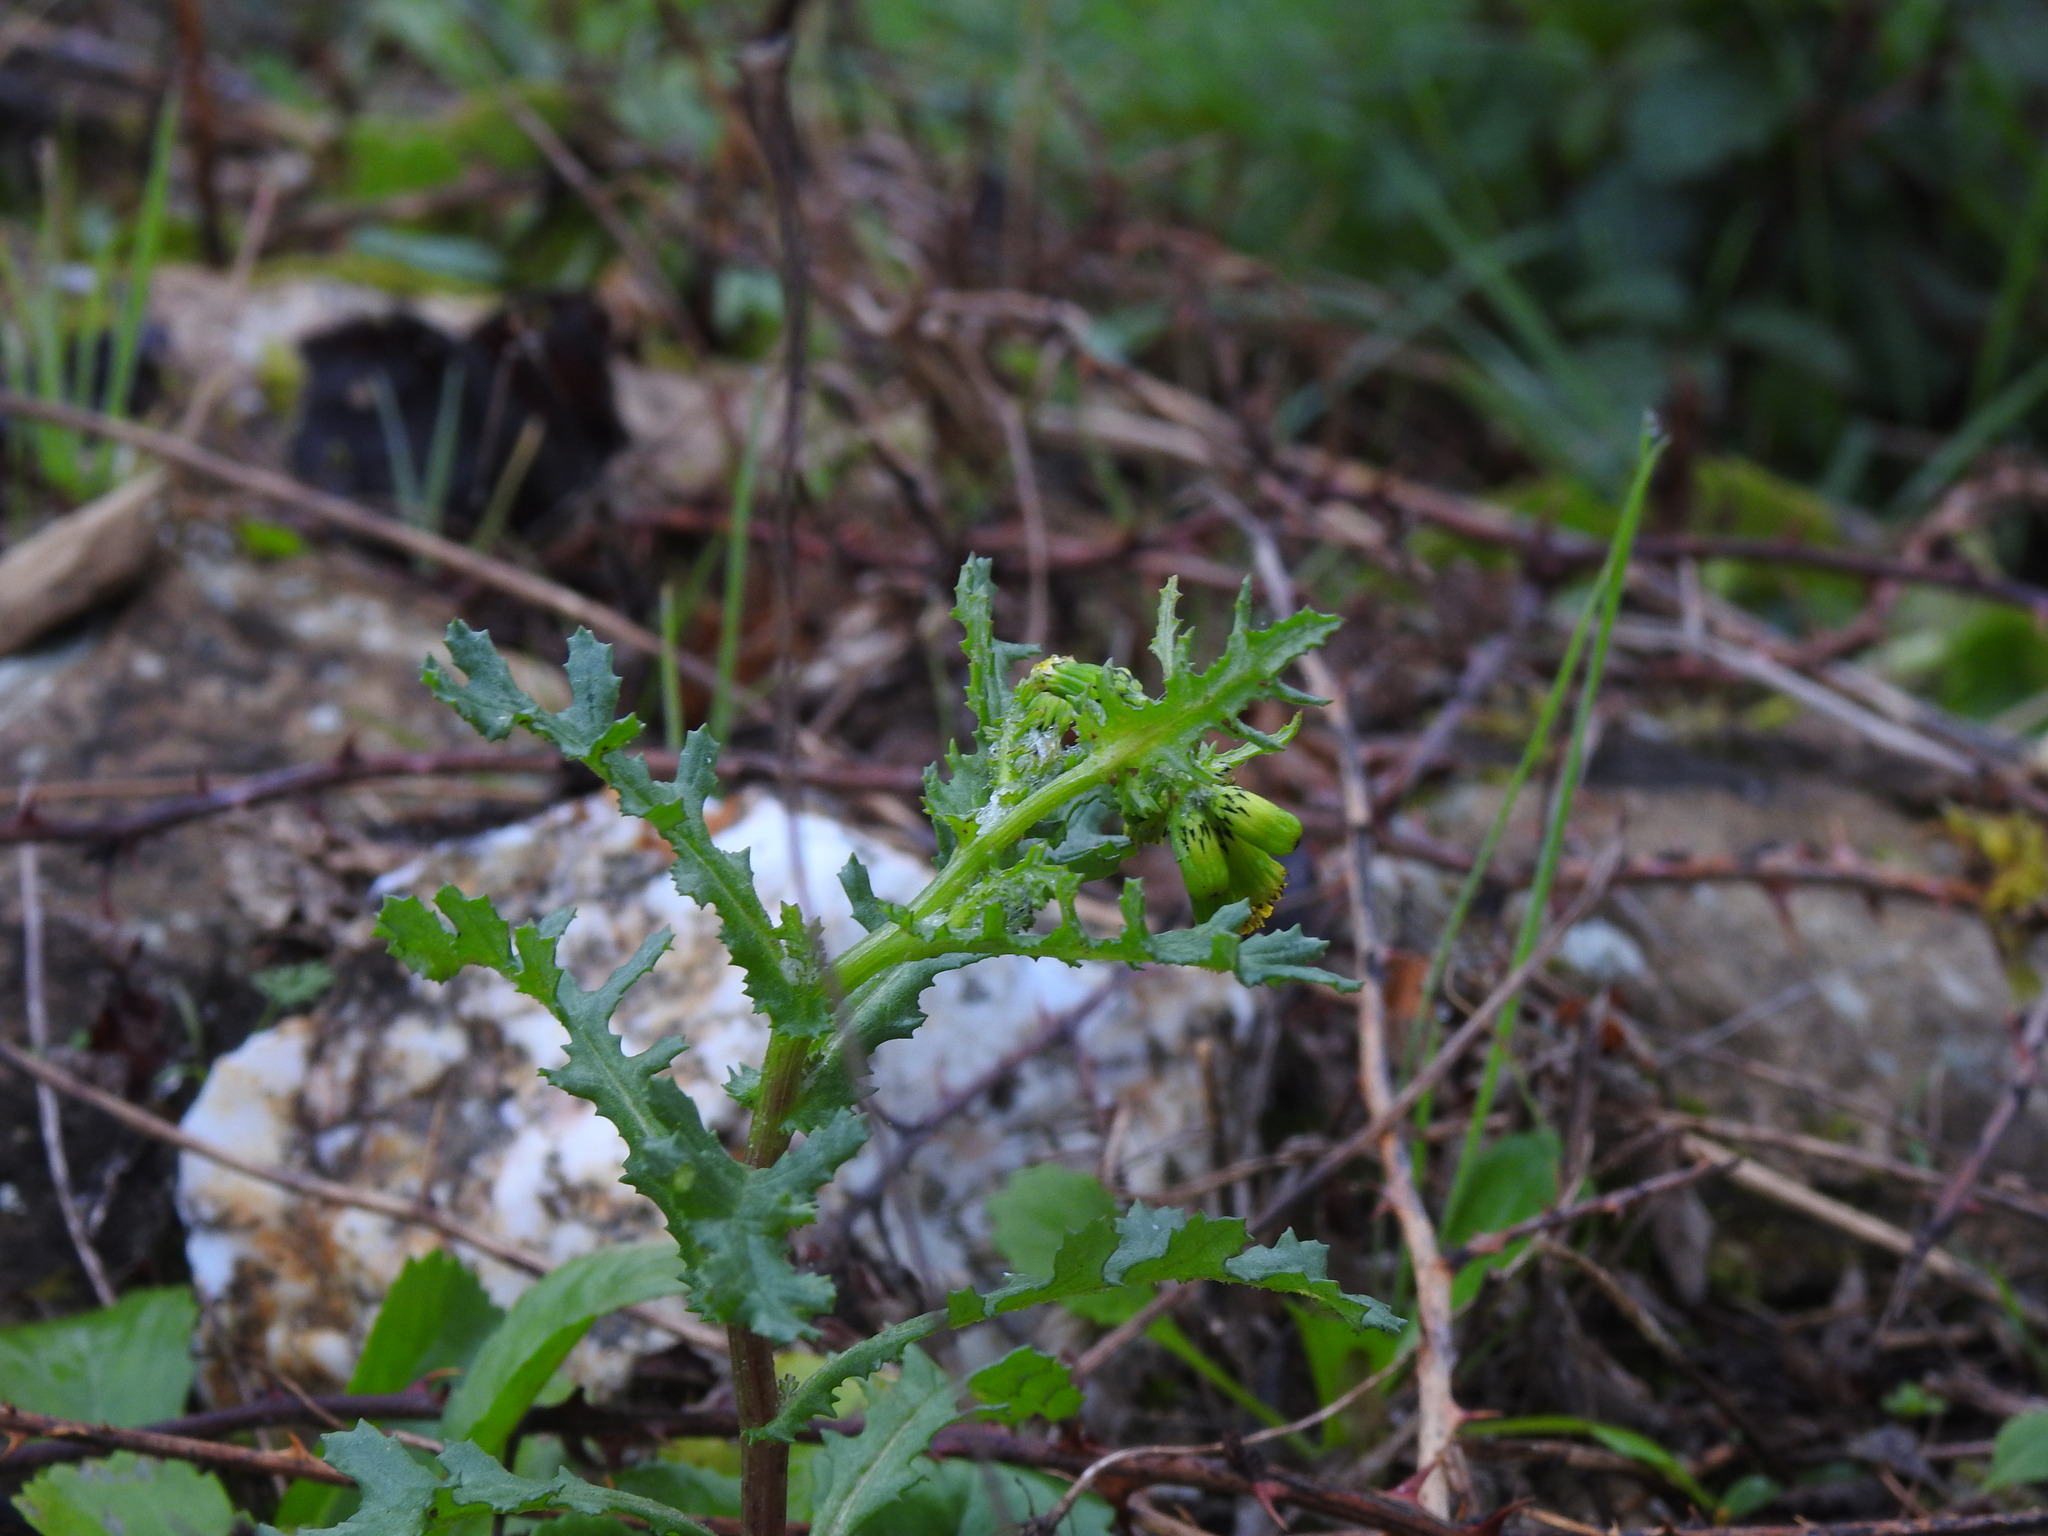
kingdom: Plantae
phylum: Tracheophyta
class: Magnoliopsida
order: Asterales
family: Asteraceae
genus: Senecio
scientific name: Senecio vulgaris
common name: Old-man-in-the-spring
